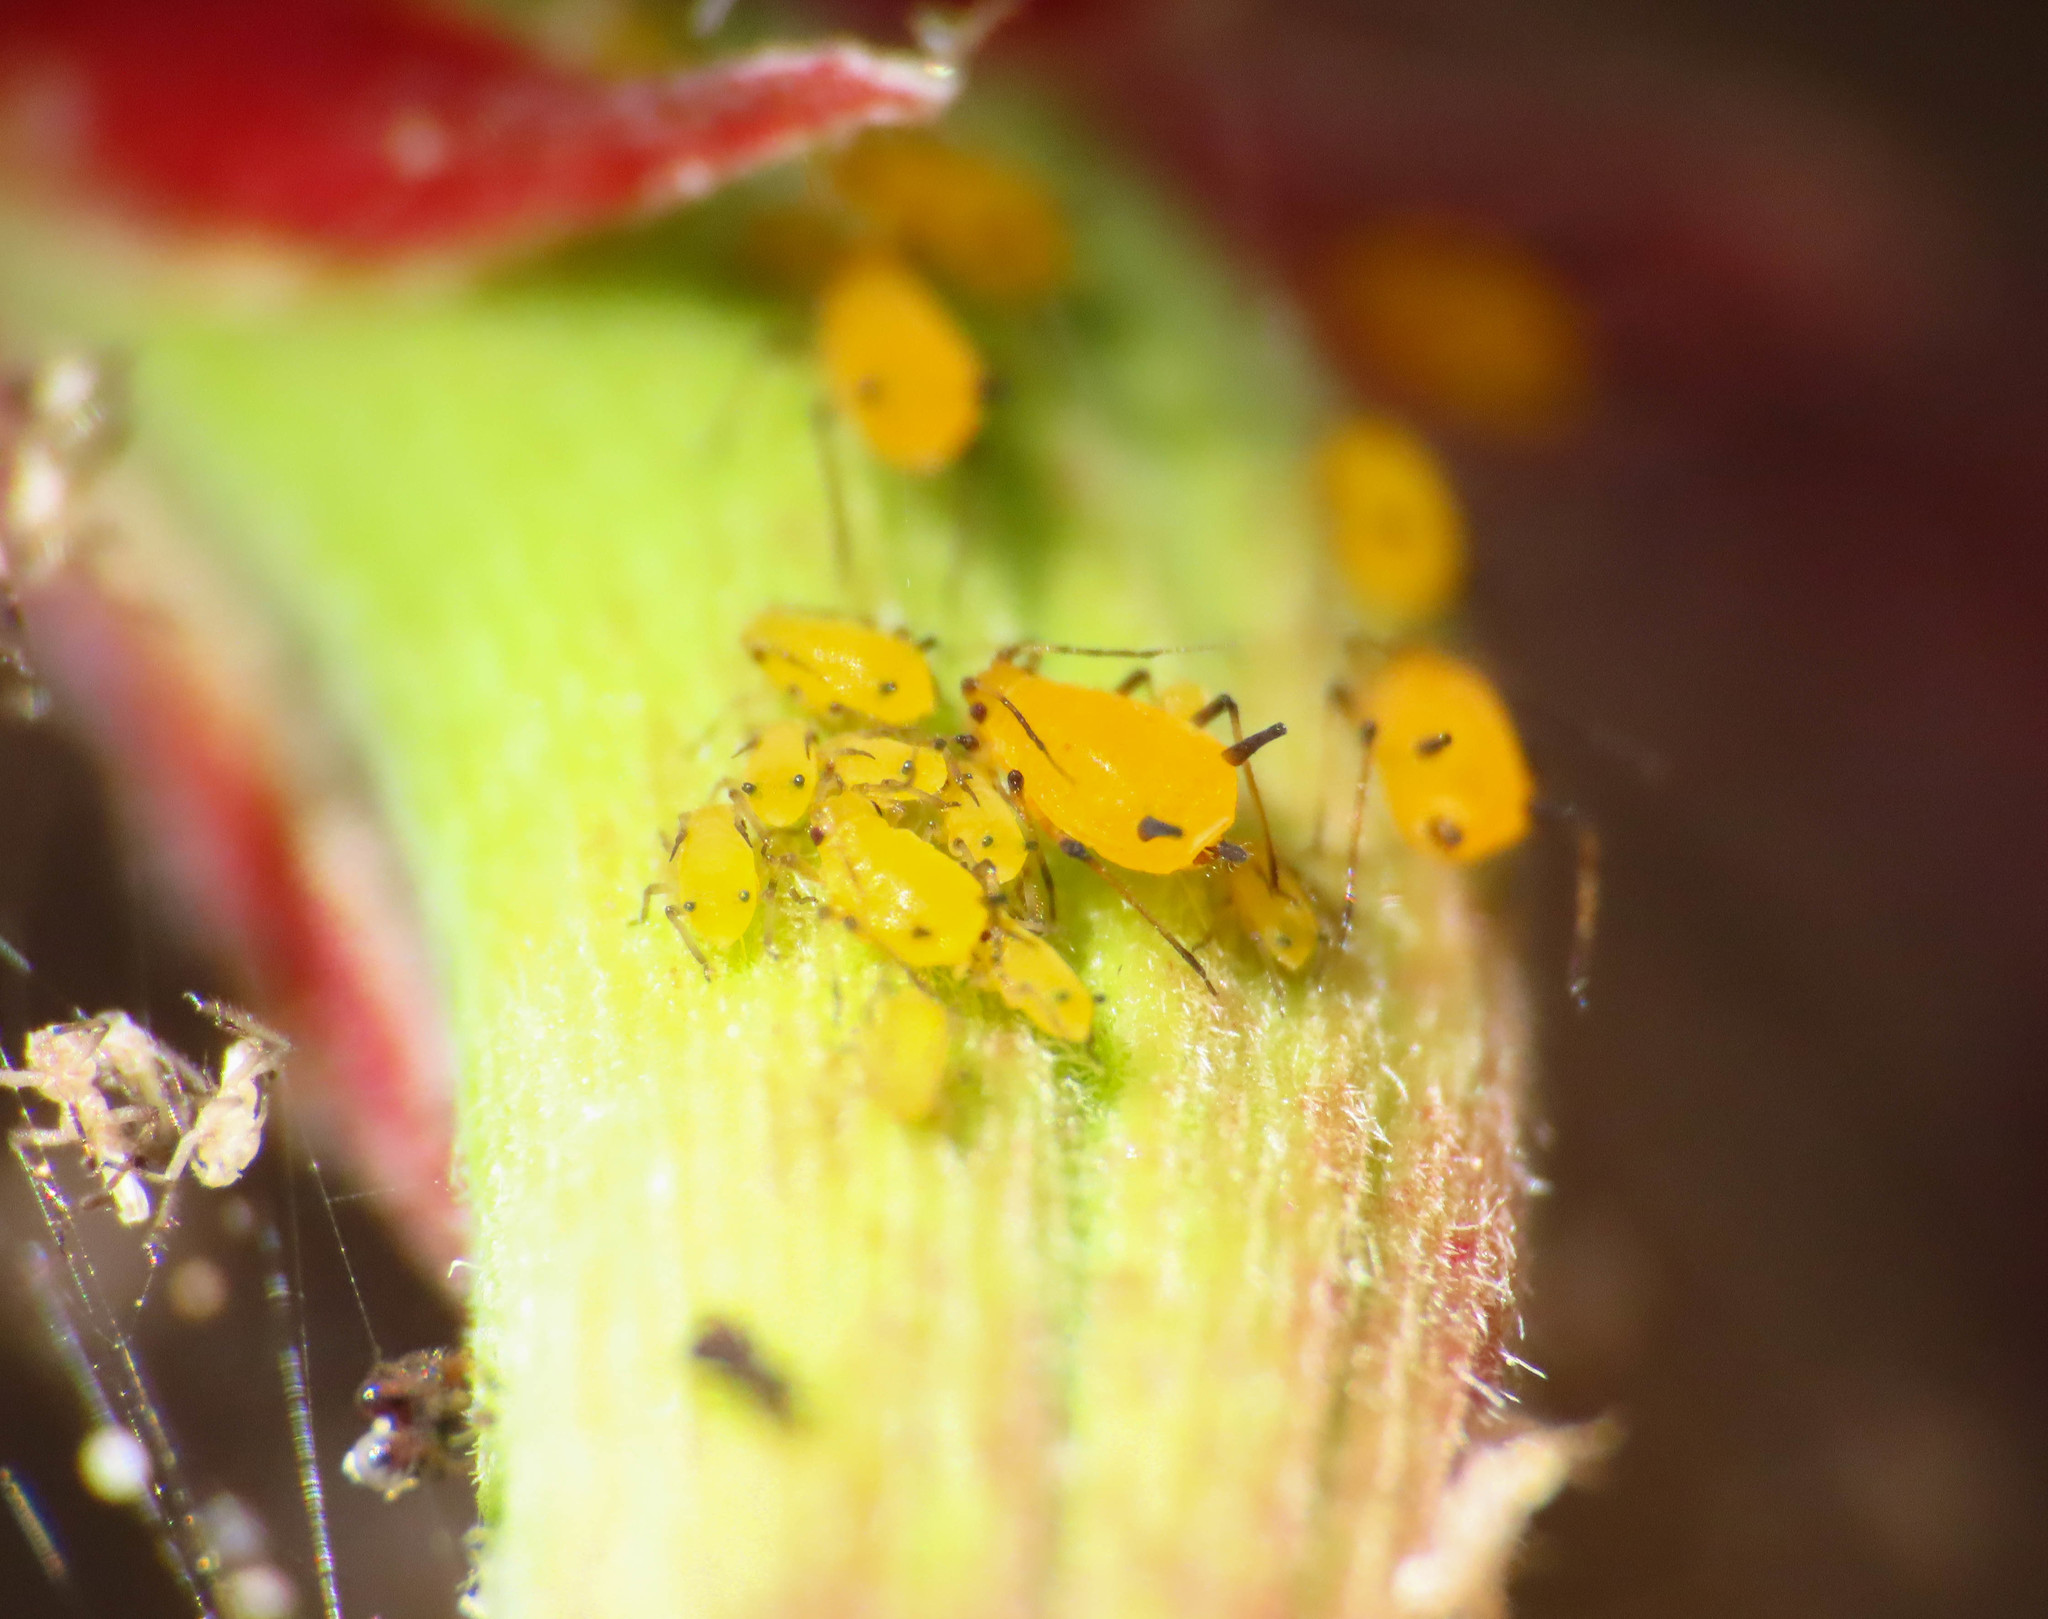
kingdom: Animalia
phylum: Arthropoda
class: Insecta
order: Hemiptera
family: Aphididae
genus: Aphis
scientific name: Aphis nerii
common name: Oleander aphid
